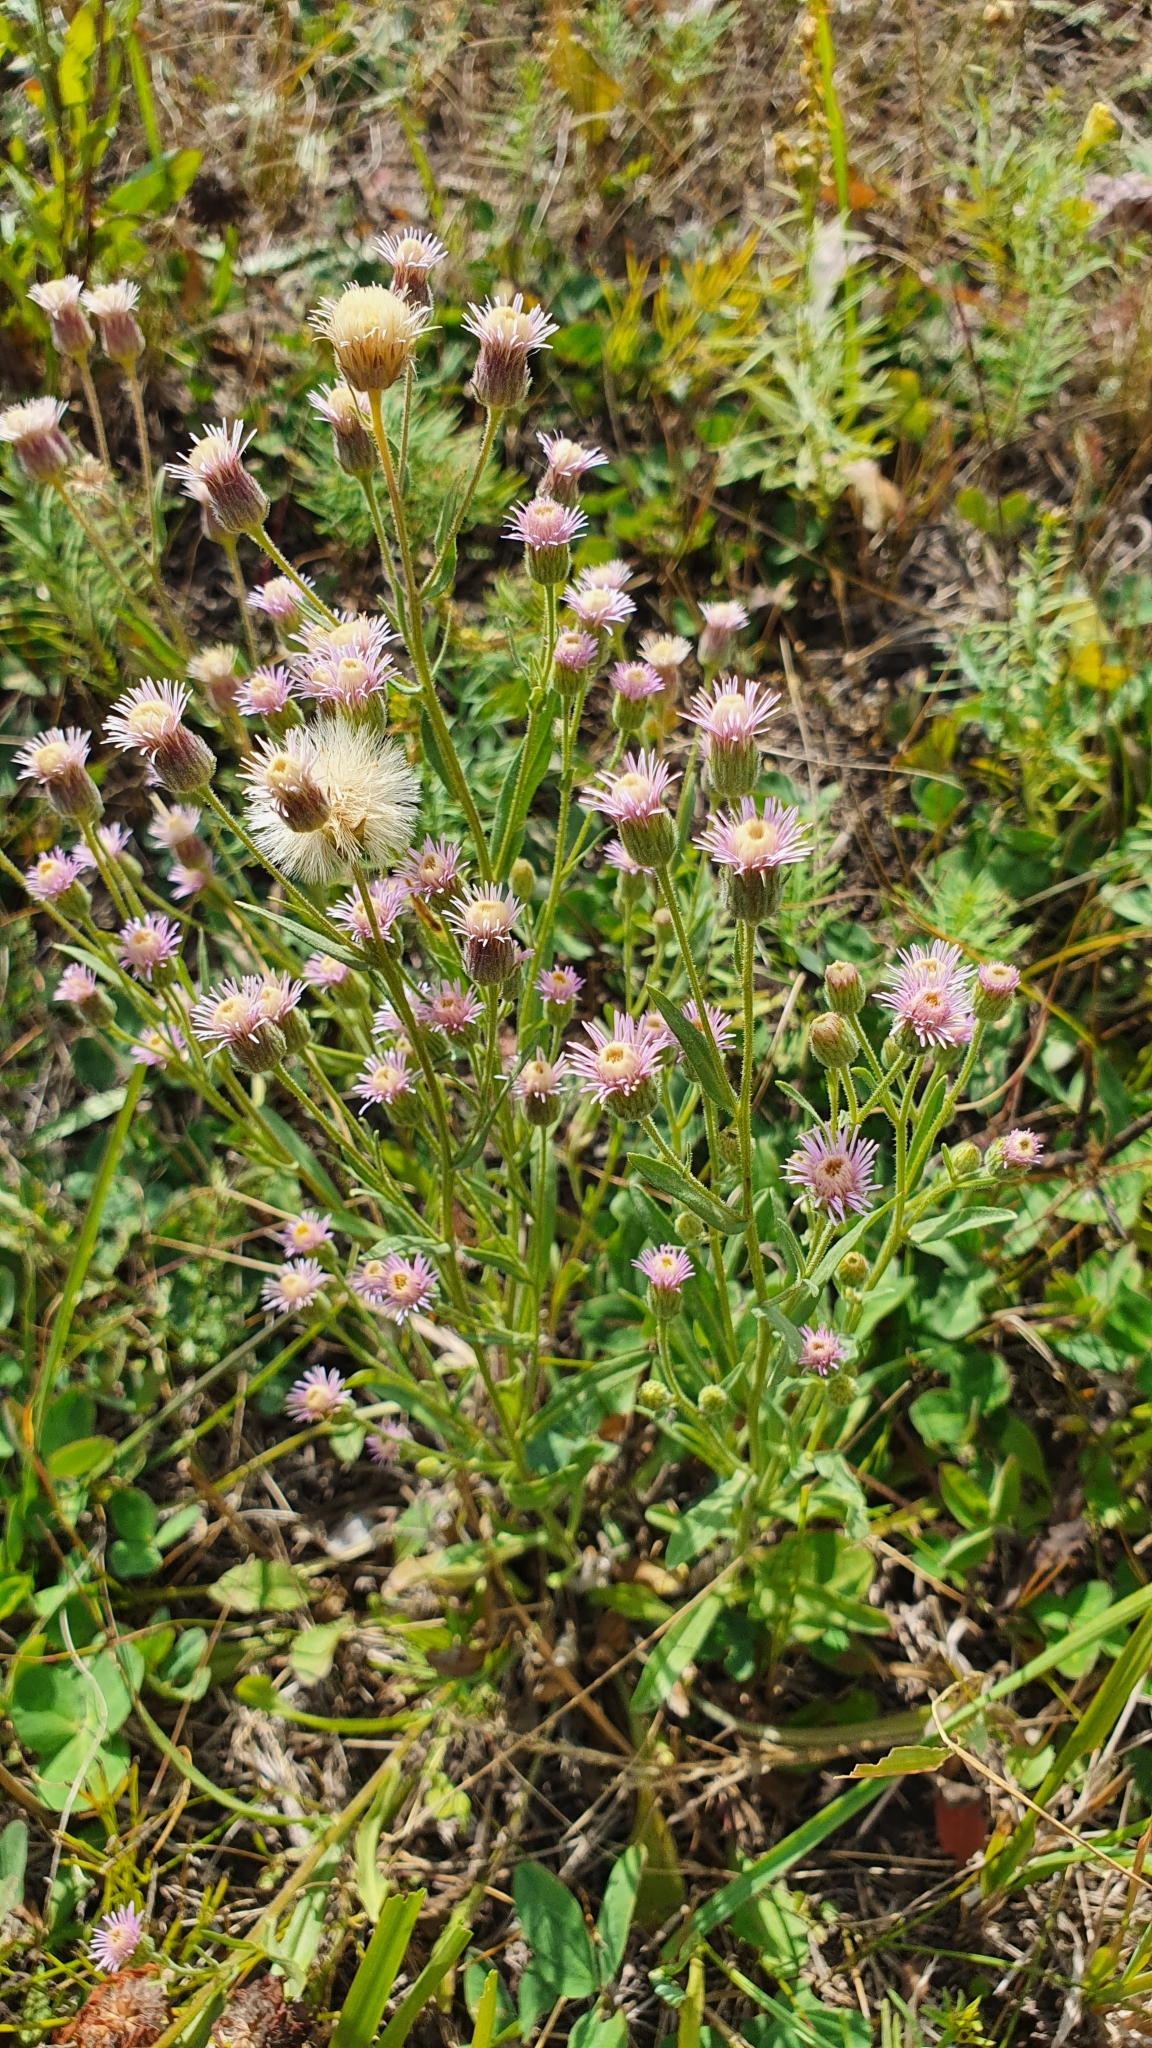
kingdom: Plantae
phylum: Tracheophyta
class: Magnoliopsida
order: Asterales
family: Asteraceae
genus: Erigeron
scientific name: Erigeron acris
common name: Blue fleabane
